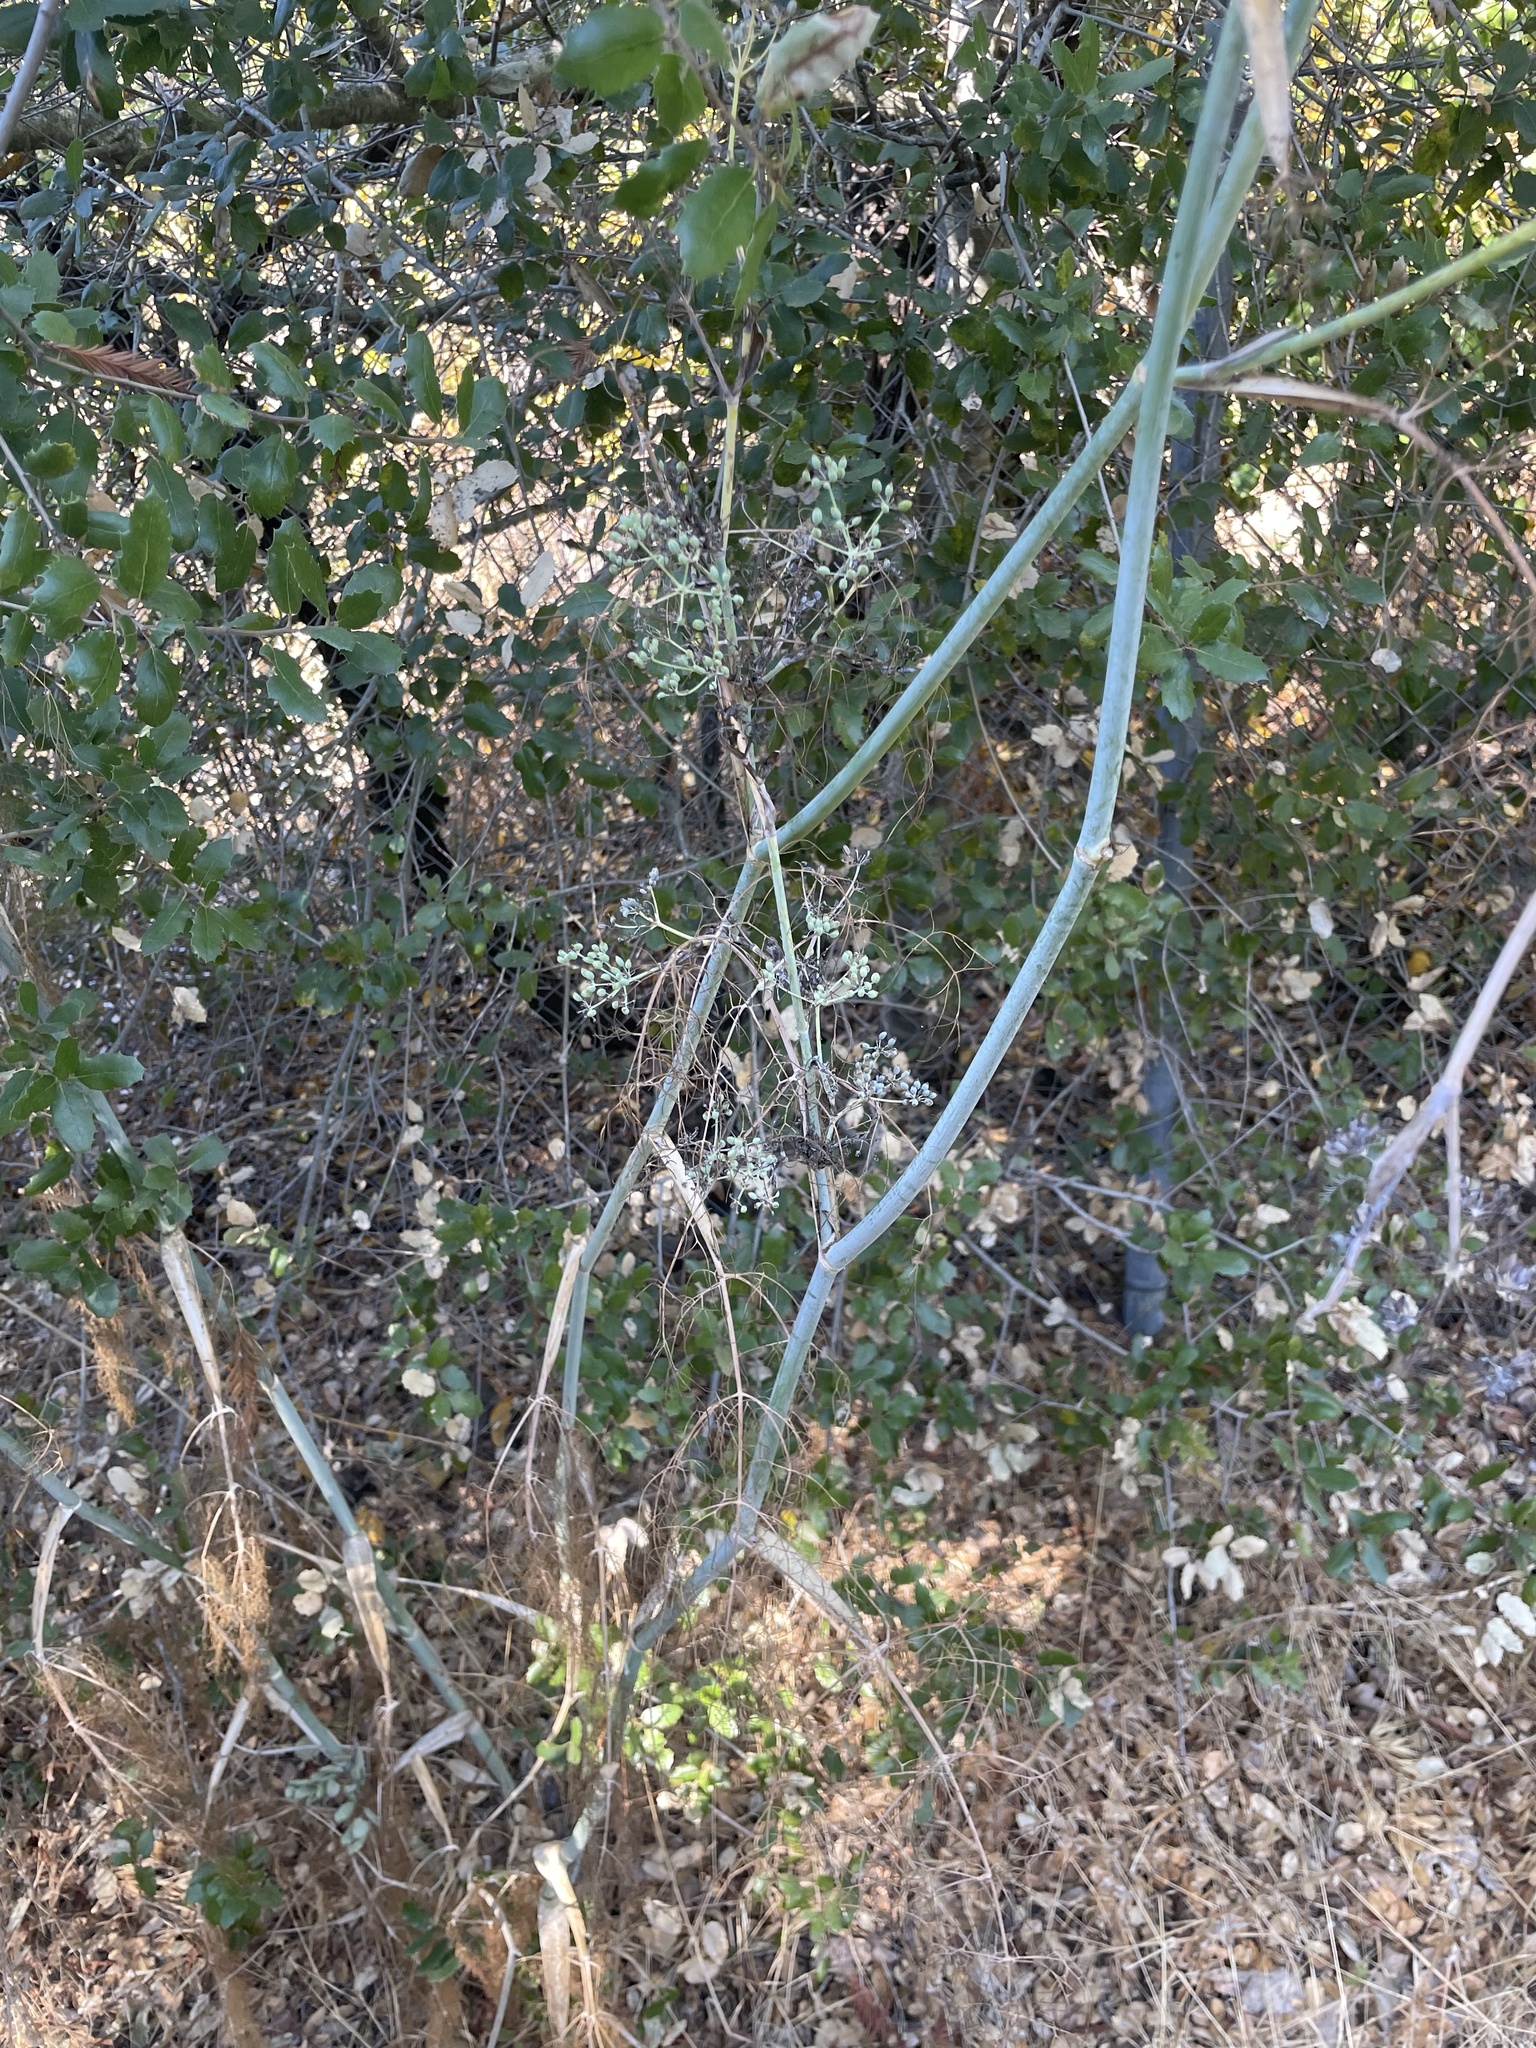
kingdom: Plantae
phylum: Tracheophyta
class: Magnoliopsida
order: Apiales
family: Apiaceae
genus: Foeniculum
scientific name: Foeniculum vulgare
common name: Fennel
